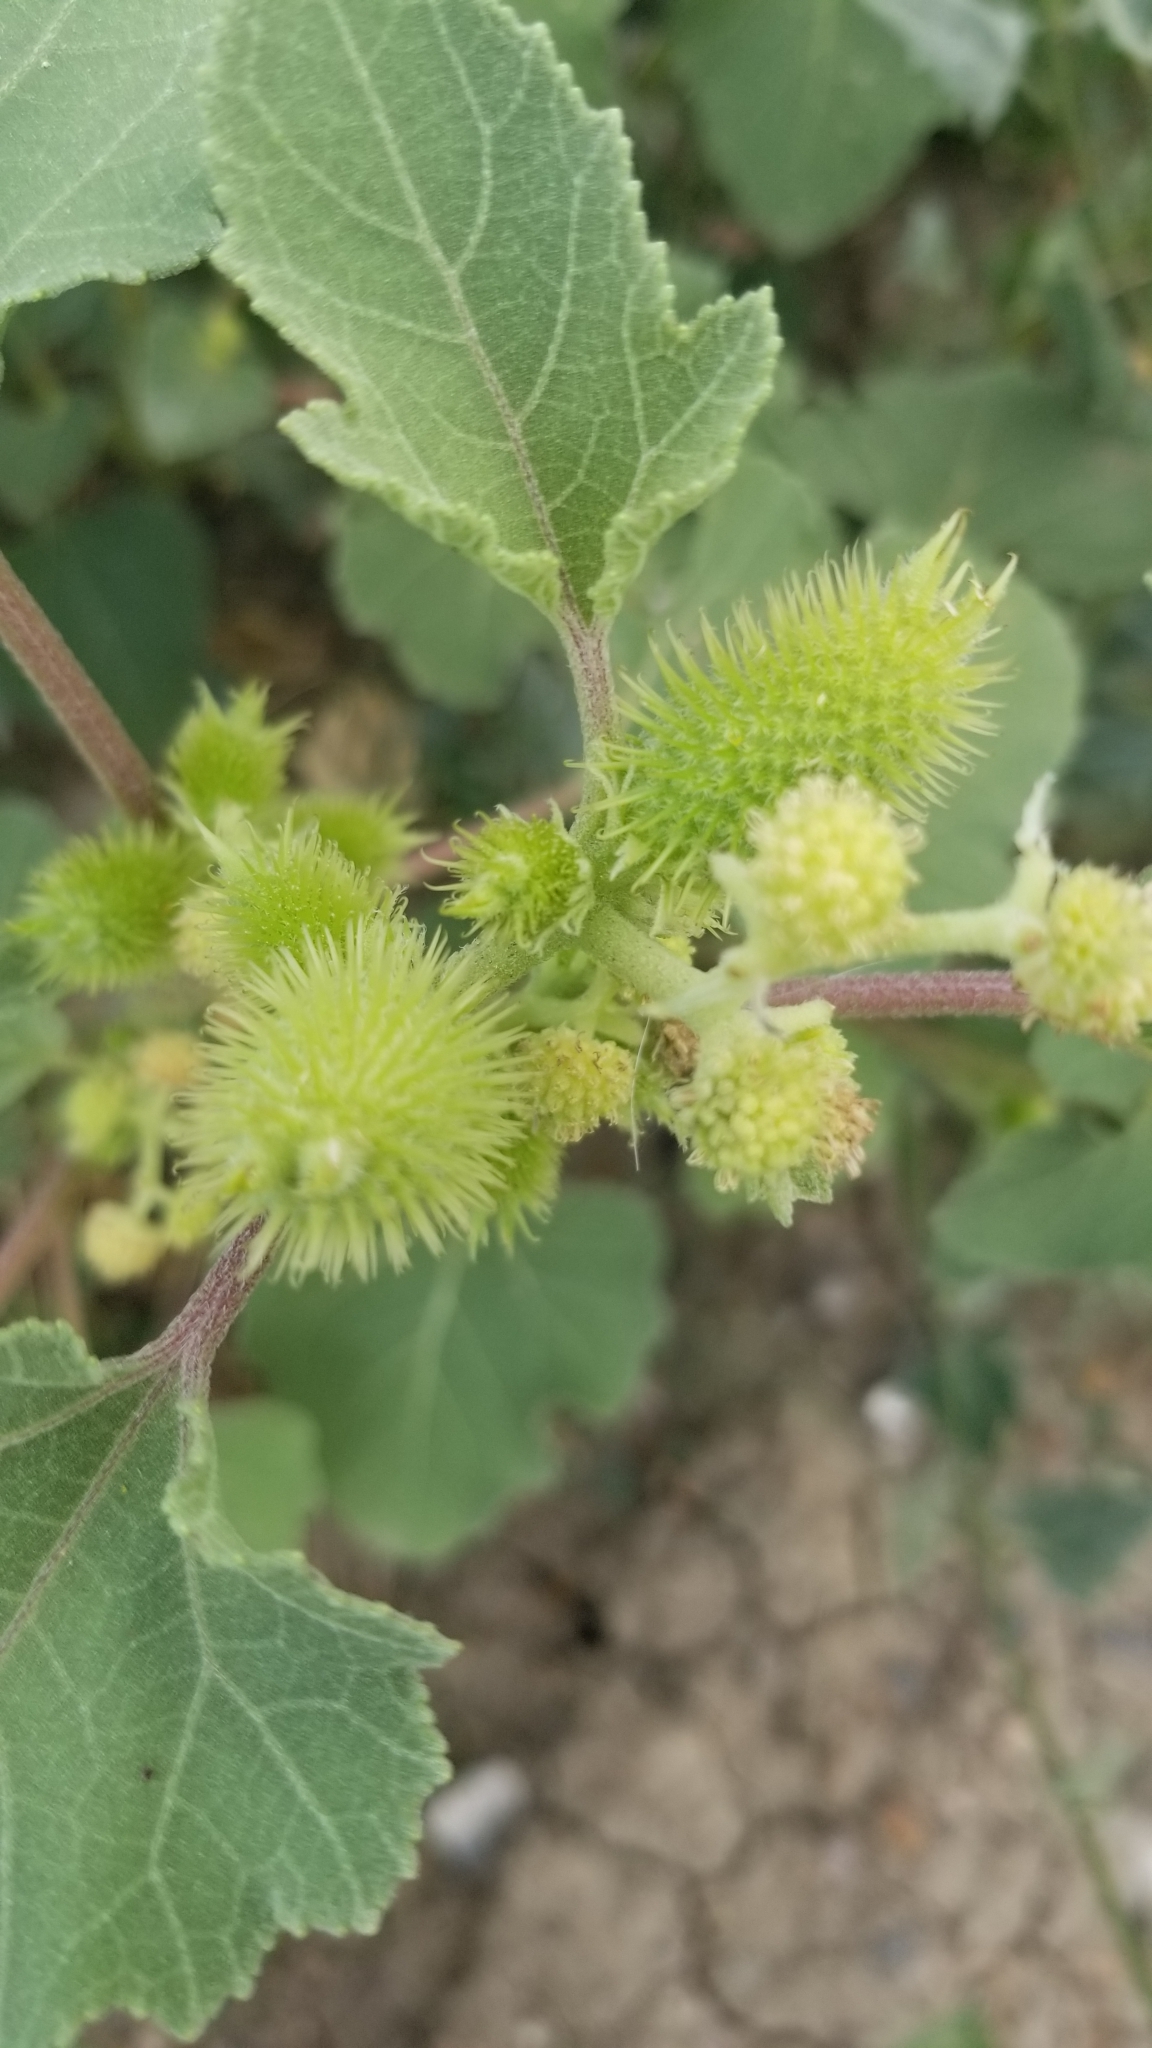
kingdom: Plantae
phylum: Tracheophyta
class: Magnoliopsida
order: Asterales
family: Asteraceae
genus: Xanthium
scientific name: Xanthium strumarium
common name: Rough cocklebur
